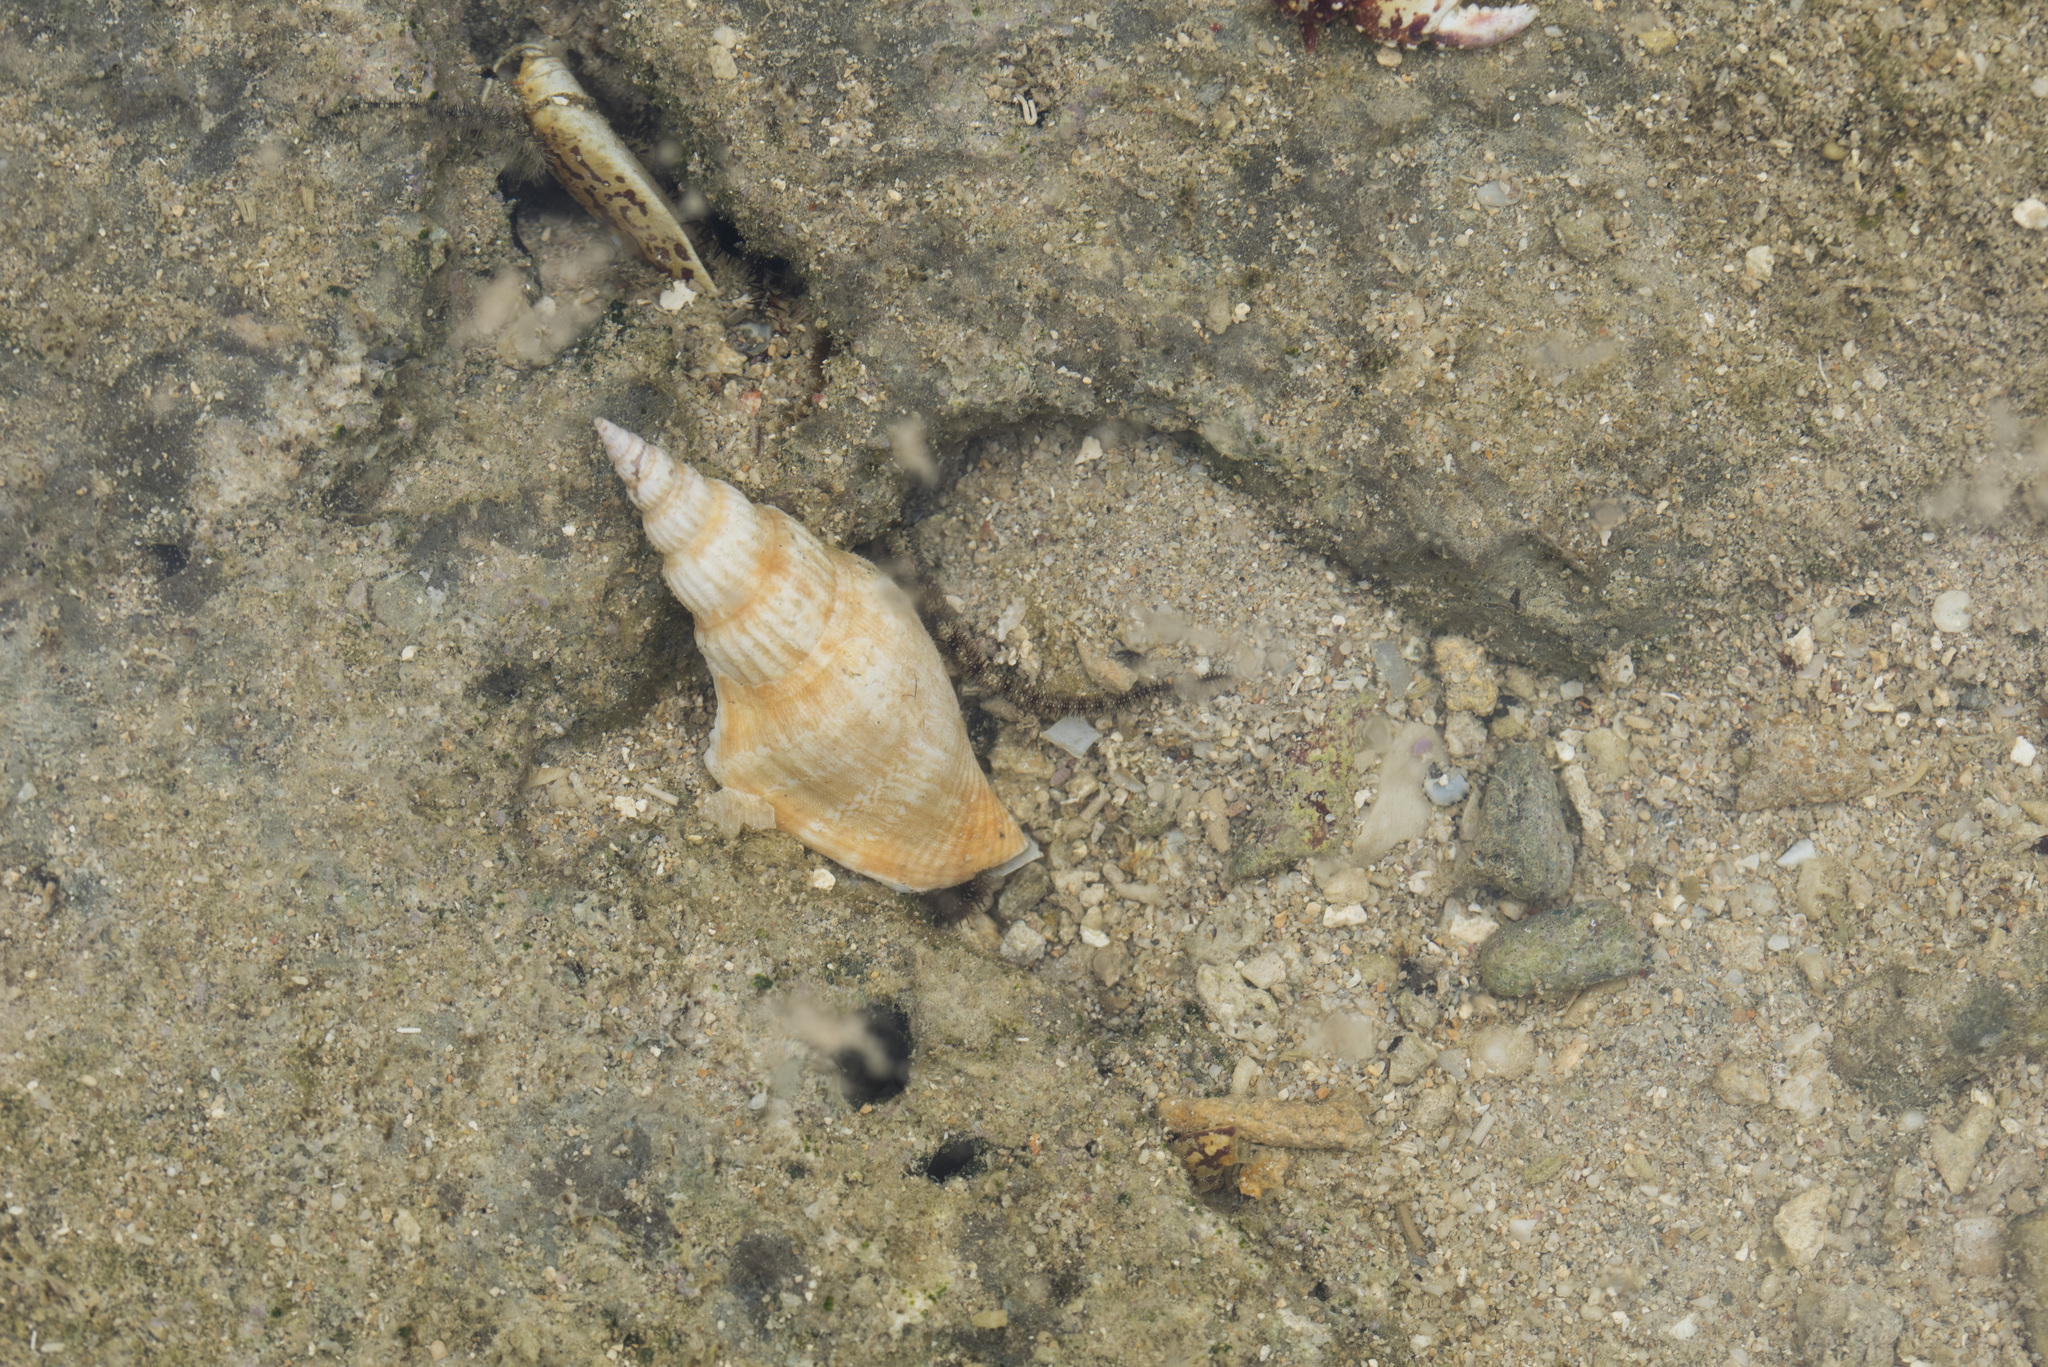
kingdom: Animalia
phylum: Mollusca
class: Gastropoda
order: Littorinimorpha
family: Strombidae
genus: Doxander
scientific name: Doxander vittatus
